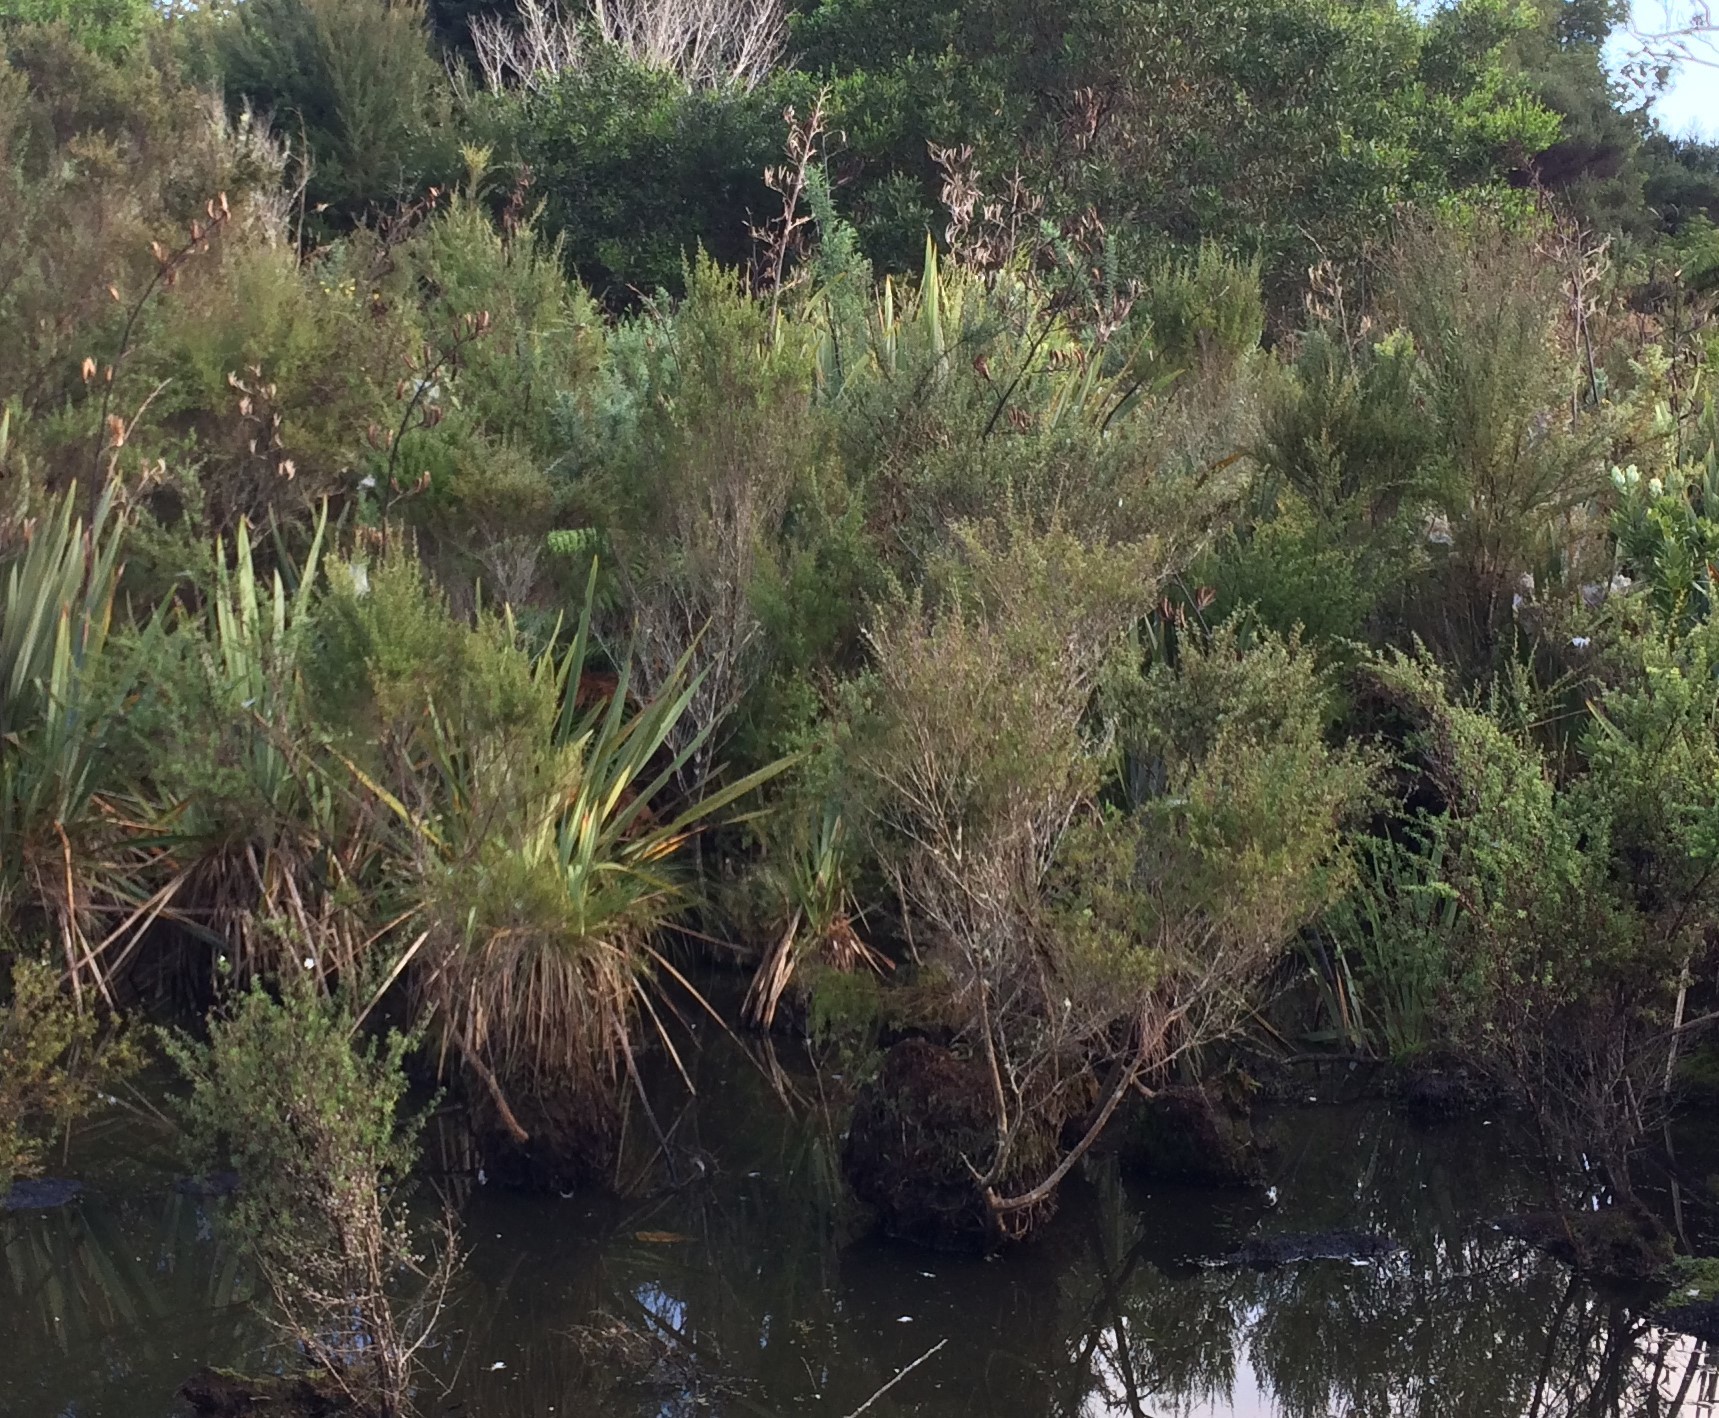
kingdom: Plantae
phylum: Tracheophyta
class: Magnoliopsida
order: Myrtales
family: Myrtaceae
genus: Leptospermum
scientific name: Leptospermum scoparium
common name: Broom tea-tree
